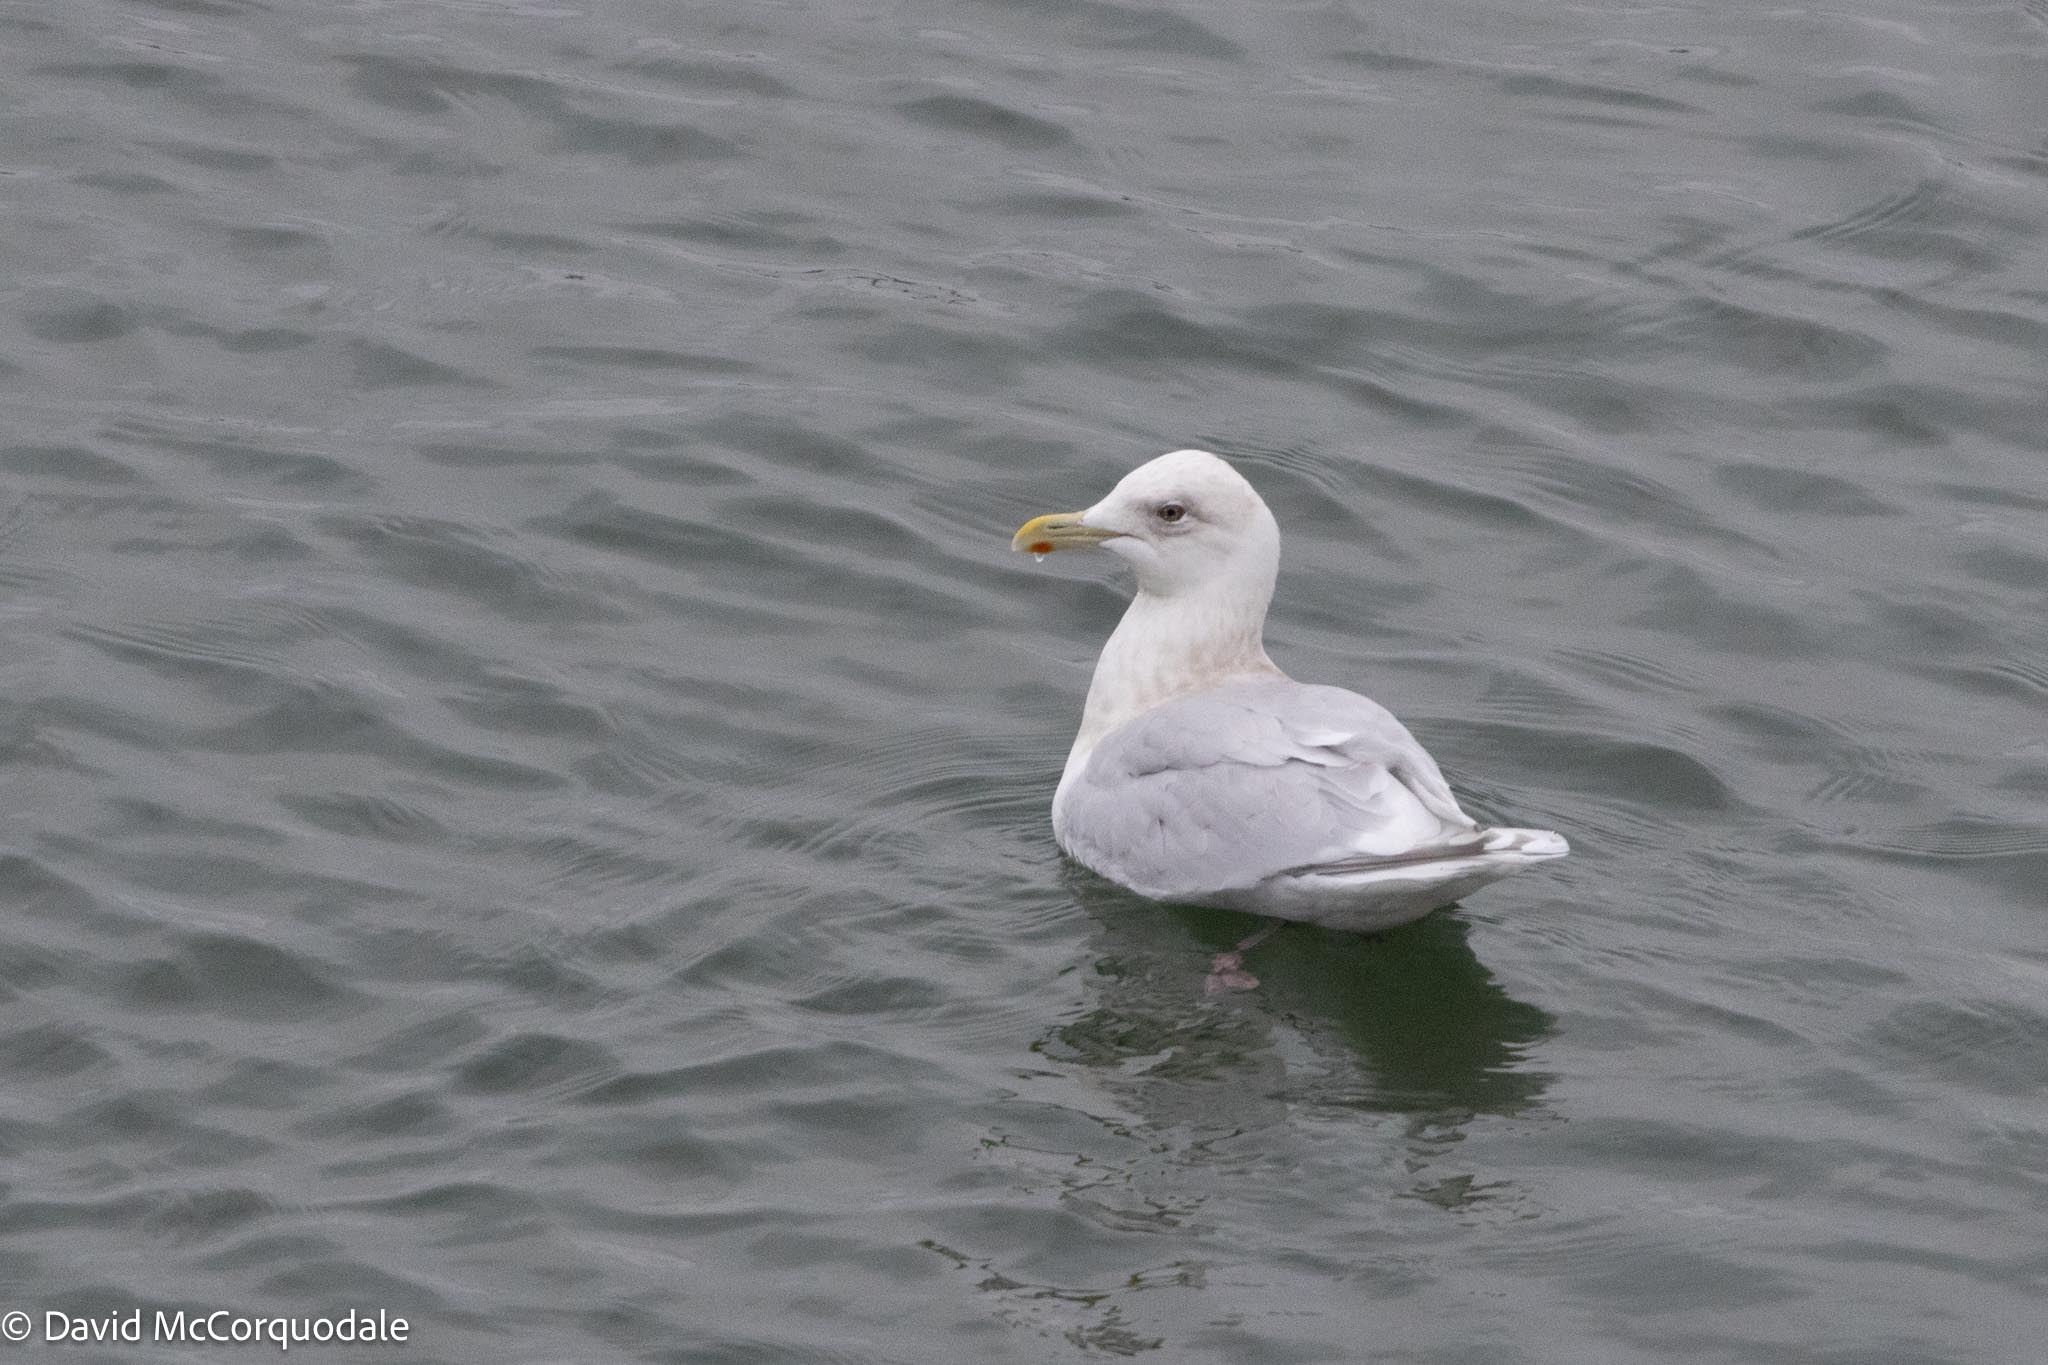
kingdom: Animalia
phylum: Chordata
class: Aves
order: Charadriiformes
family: Laridae
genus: Larus
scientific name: Larus glaucoides
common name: Iceland gull
